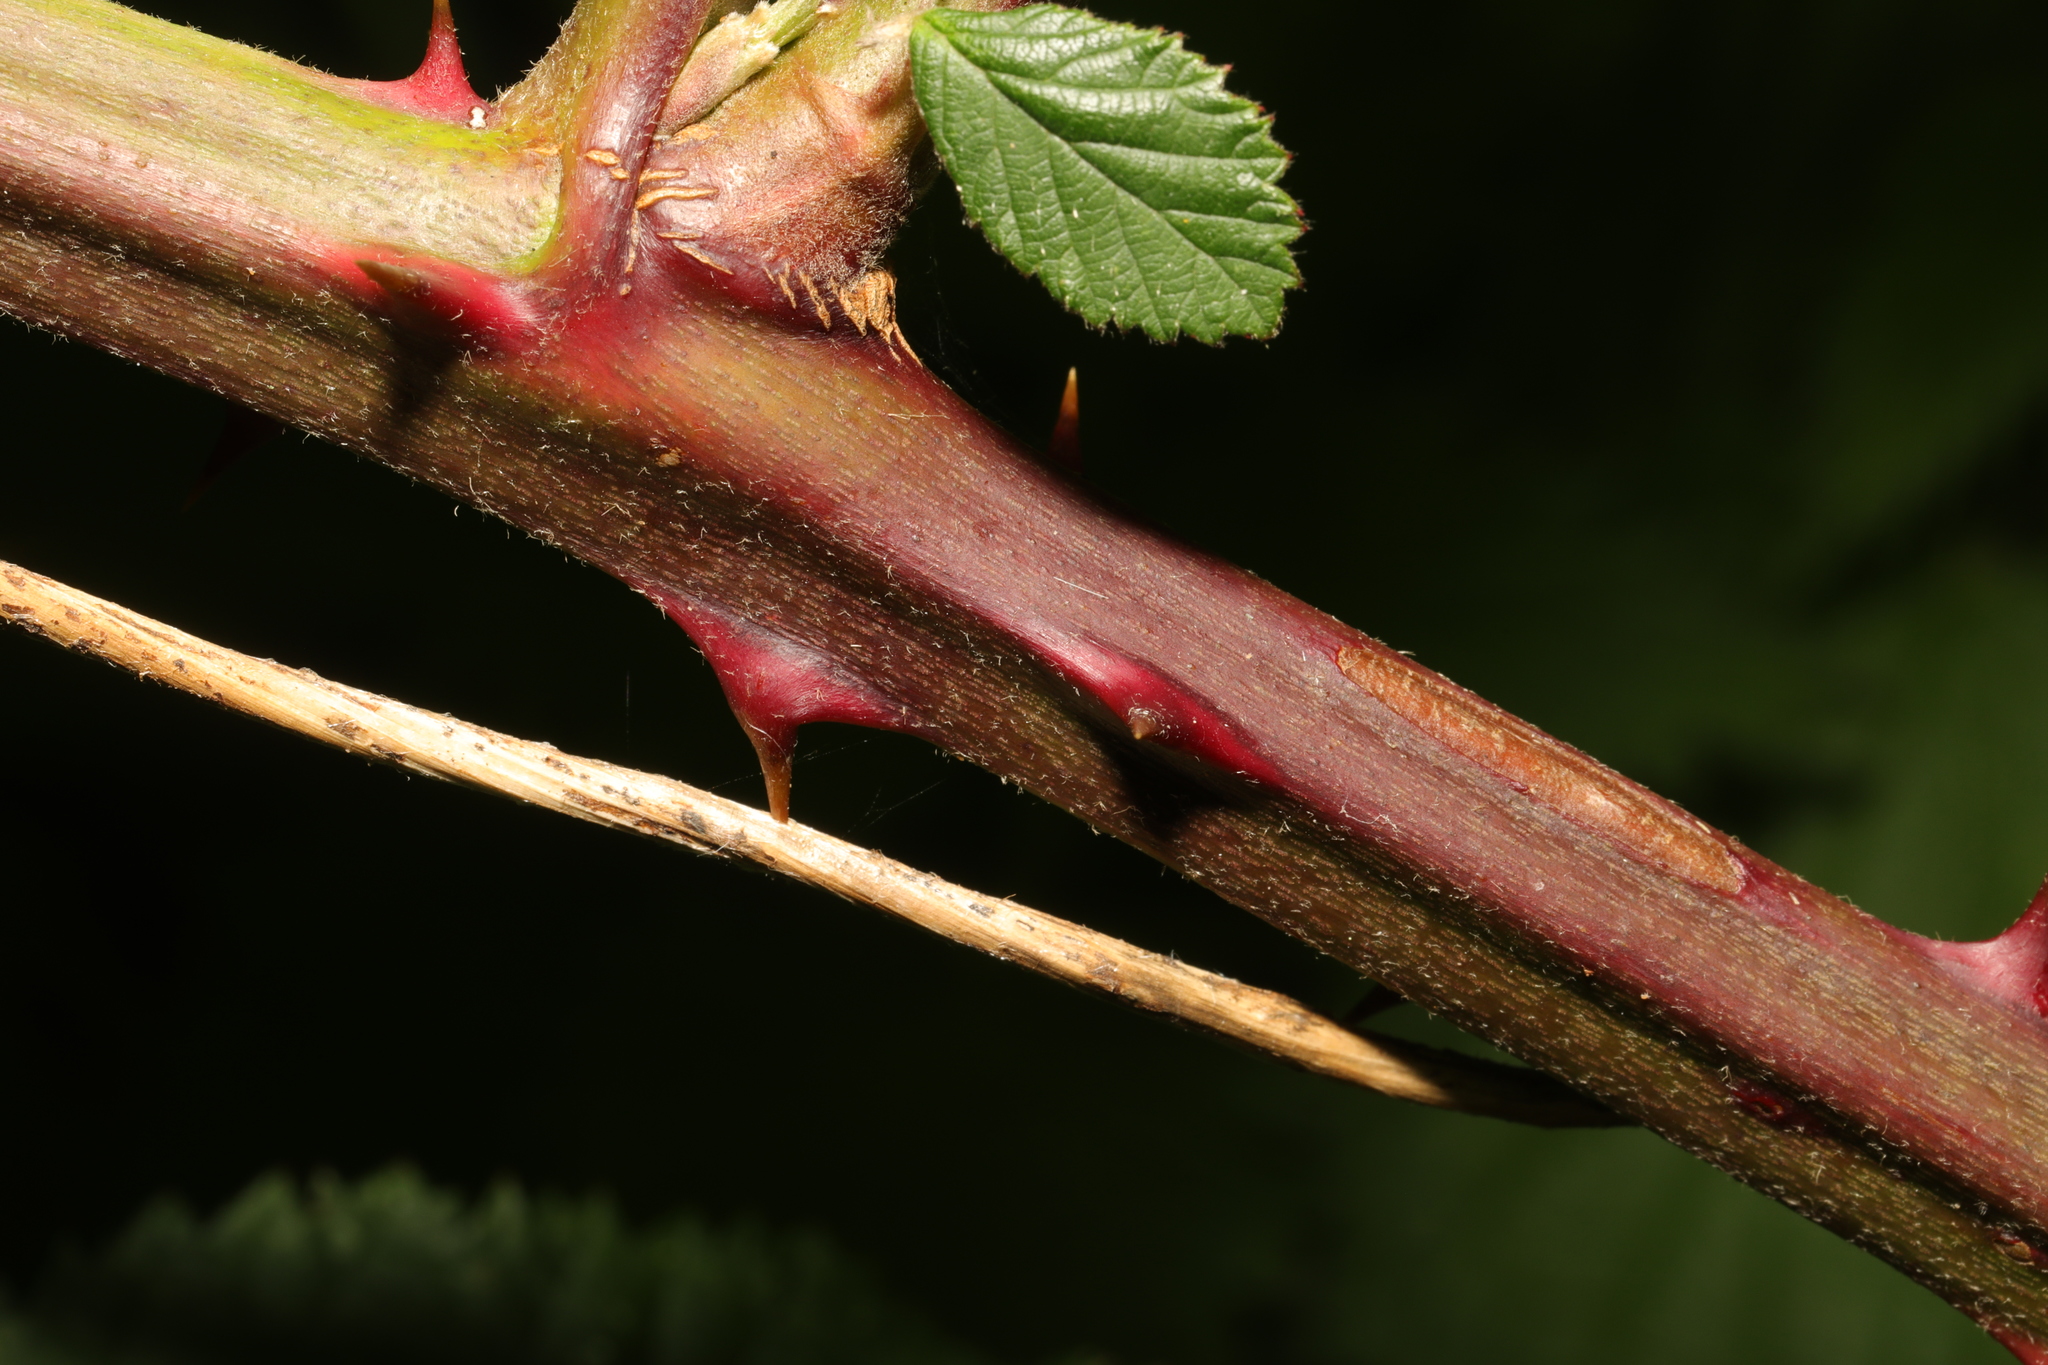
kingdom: Plantae
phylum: Tracheophyta
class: Magnoliopsida
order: Rosales
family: Rosaceae
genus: Rubus
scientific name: Rubus armeniacus
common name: Himalayan blackberry
